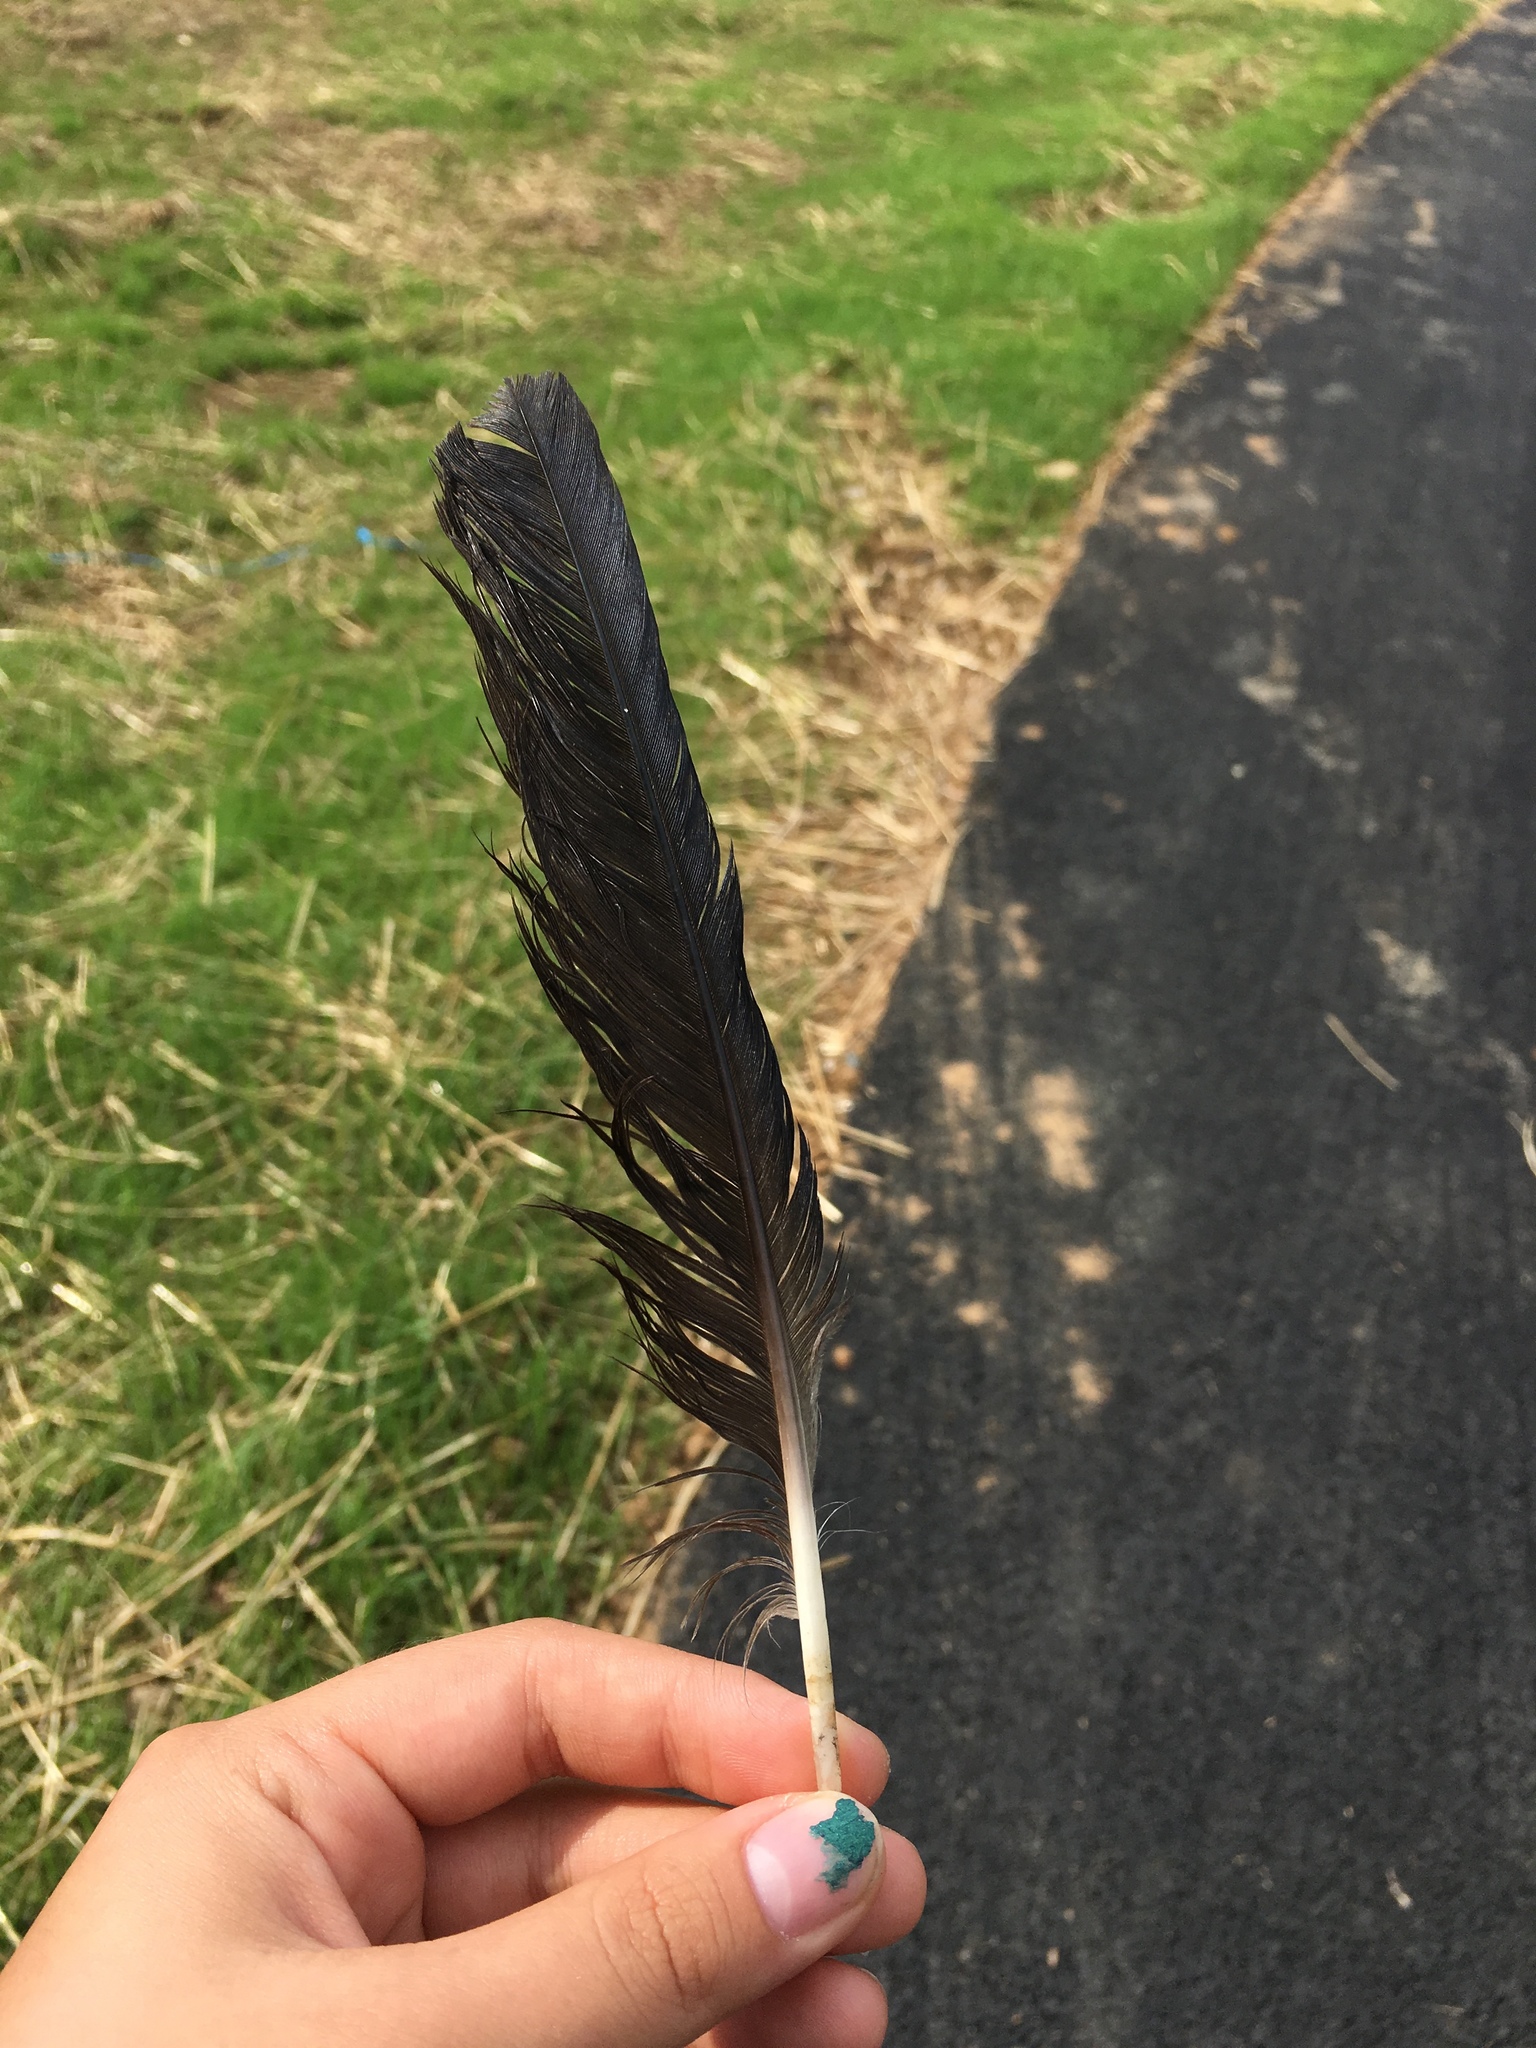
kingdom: Animalia
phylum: Chordata
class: Aves
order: Passeriformes
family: Corvidae
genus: Corvus
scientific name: Corvus
